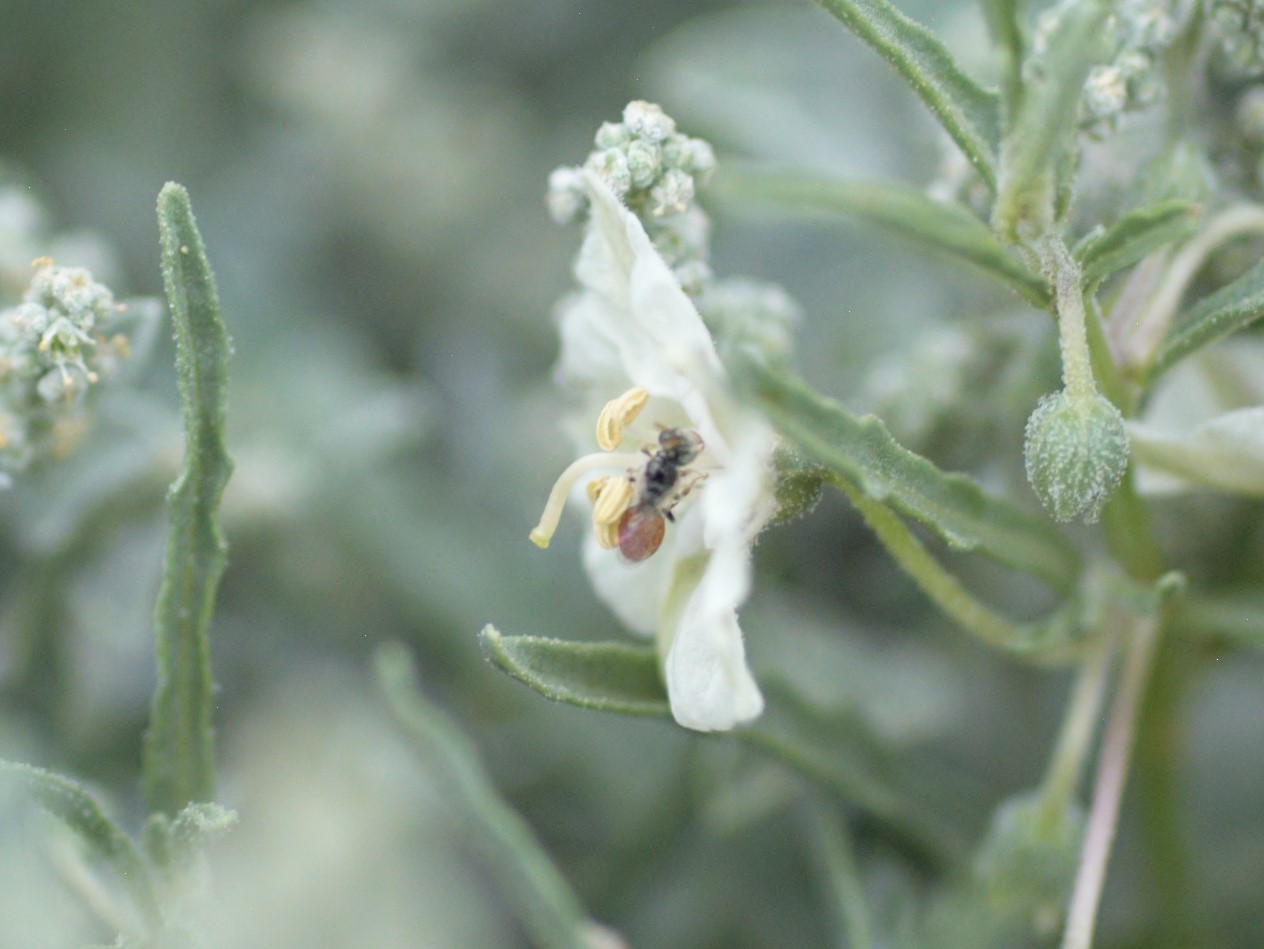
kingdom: Animalia
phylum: Arthropoda
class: Insecta
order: Hymenoptera
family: Andrenidae
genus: Perdita
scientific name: Perdita chamaesarachae
